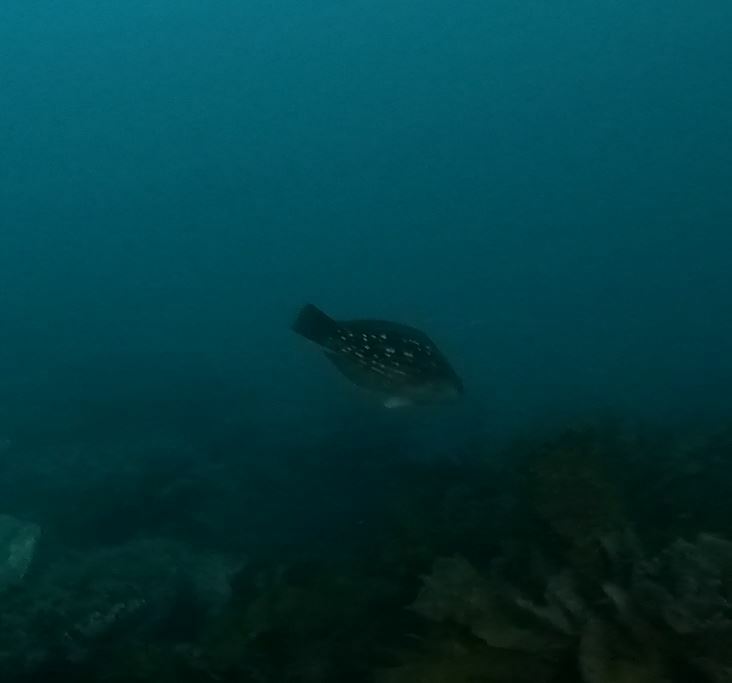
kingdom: Animalia
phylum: Chordata
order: Perciformes
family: Labridae
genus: Notolabrus
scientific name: Notolabrus gymnogenis
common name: Crimson banded wrasse
